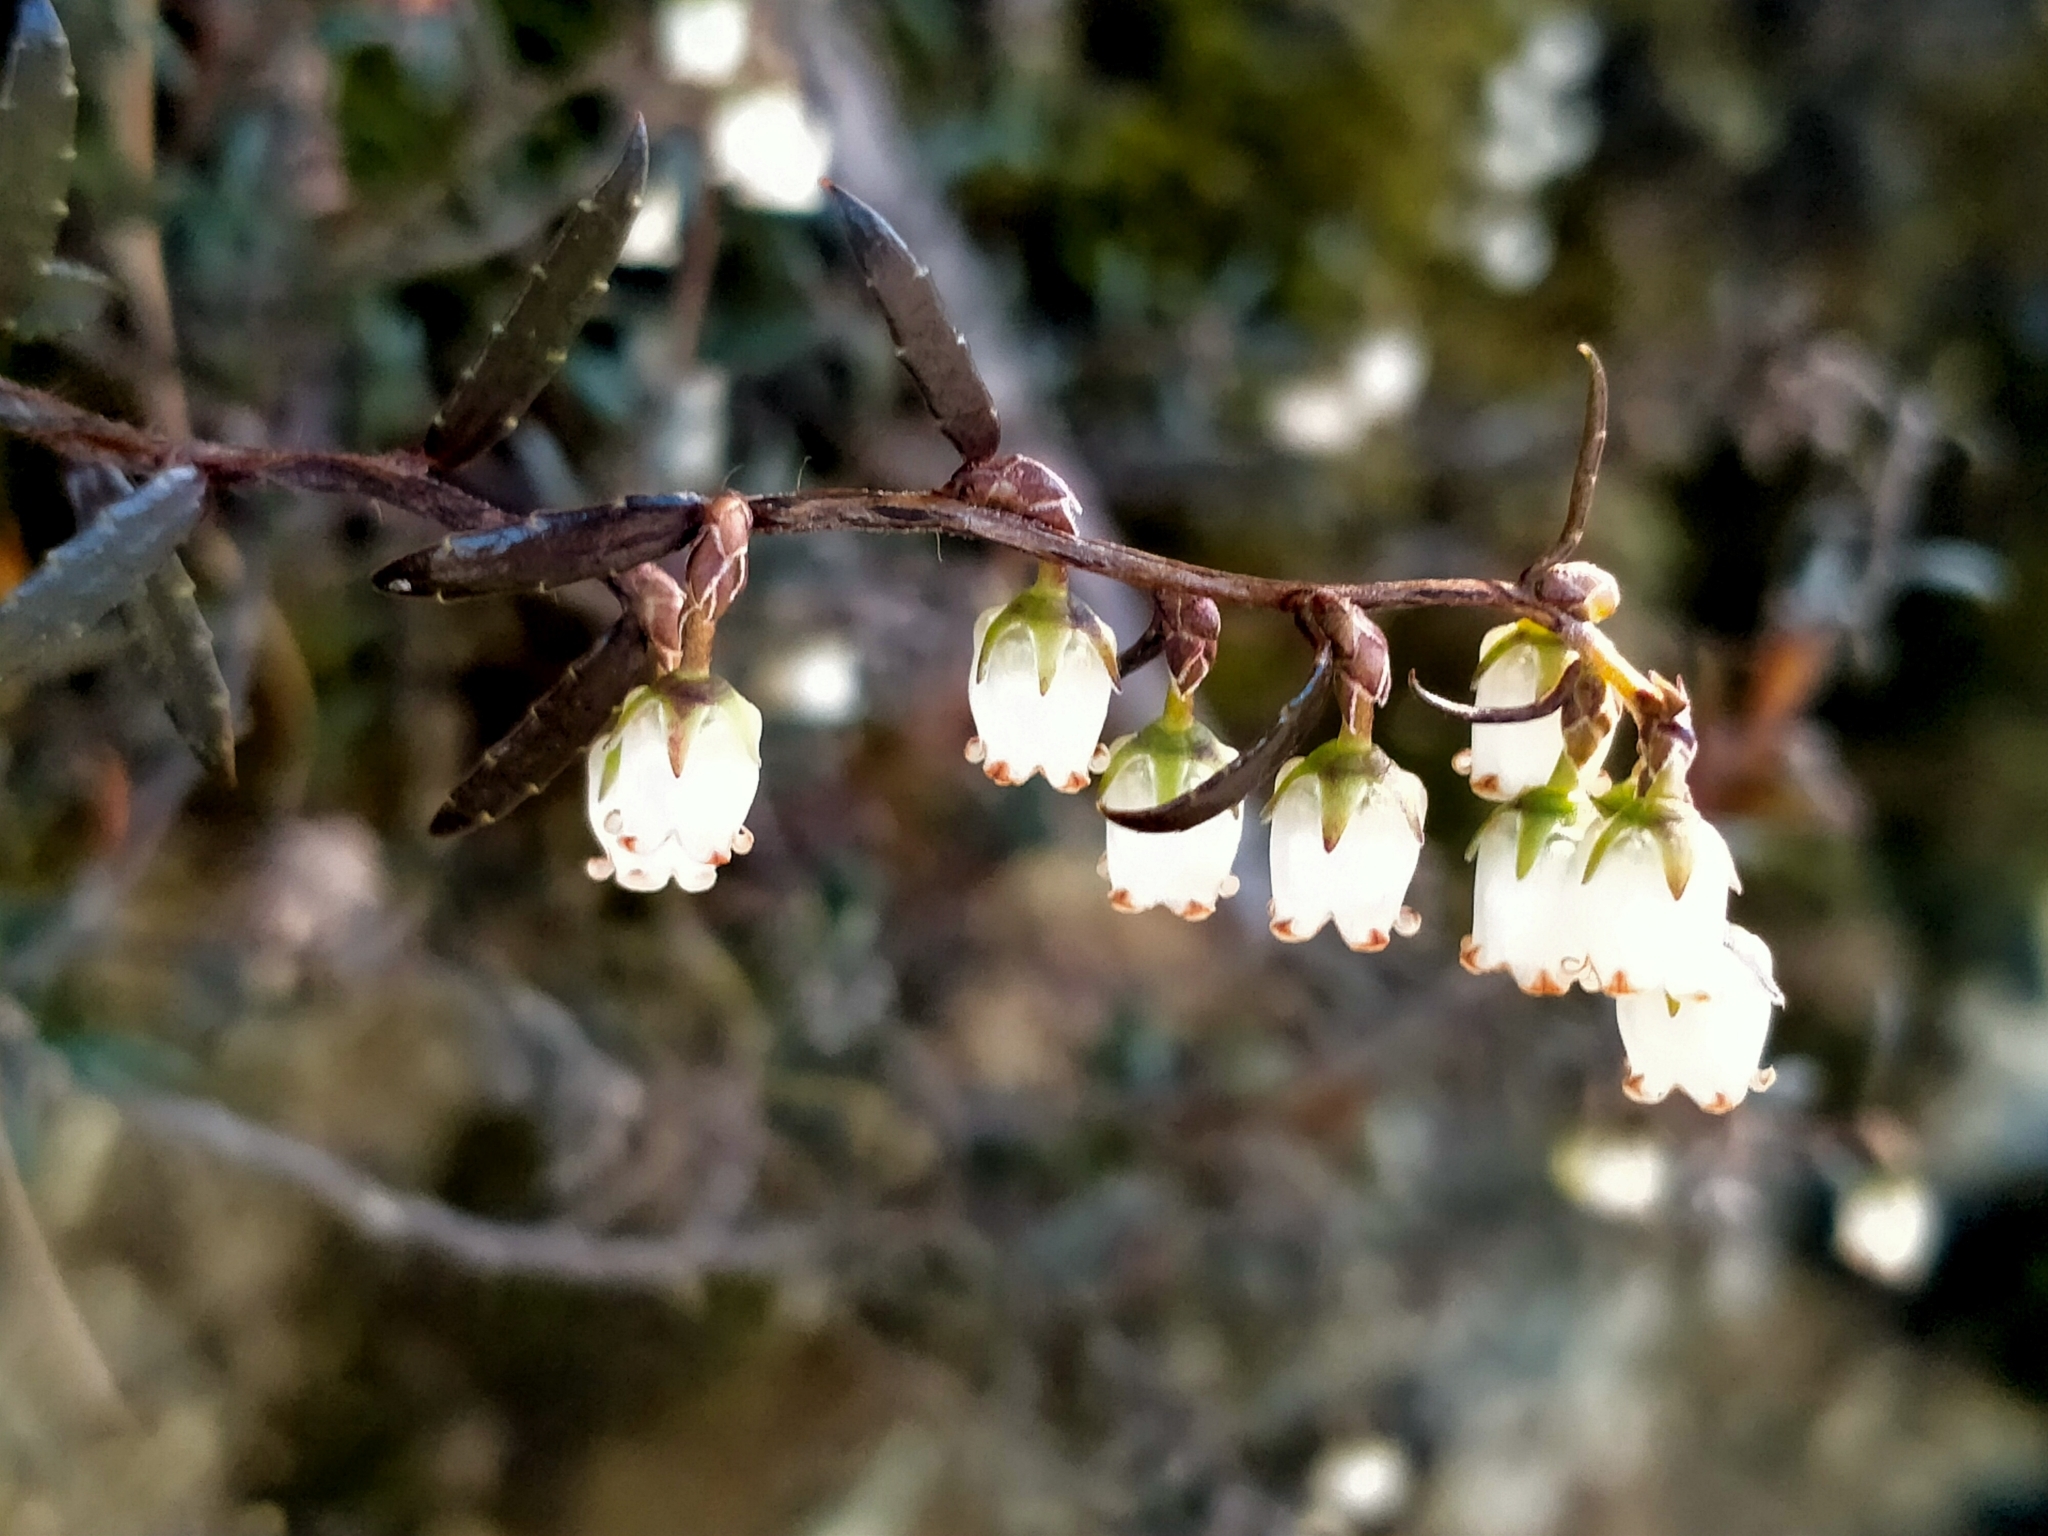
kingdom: Plantae
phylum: Tracheophyta
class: Magnoliopsida
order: Ericales
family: Ericaceae
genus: Gaultheria
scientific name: Gaultheria macrostigma
